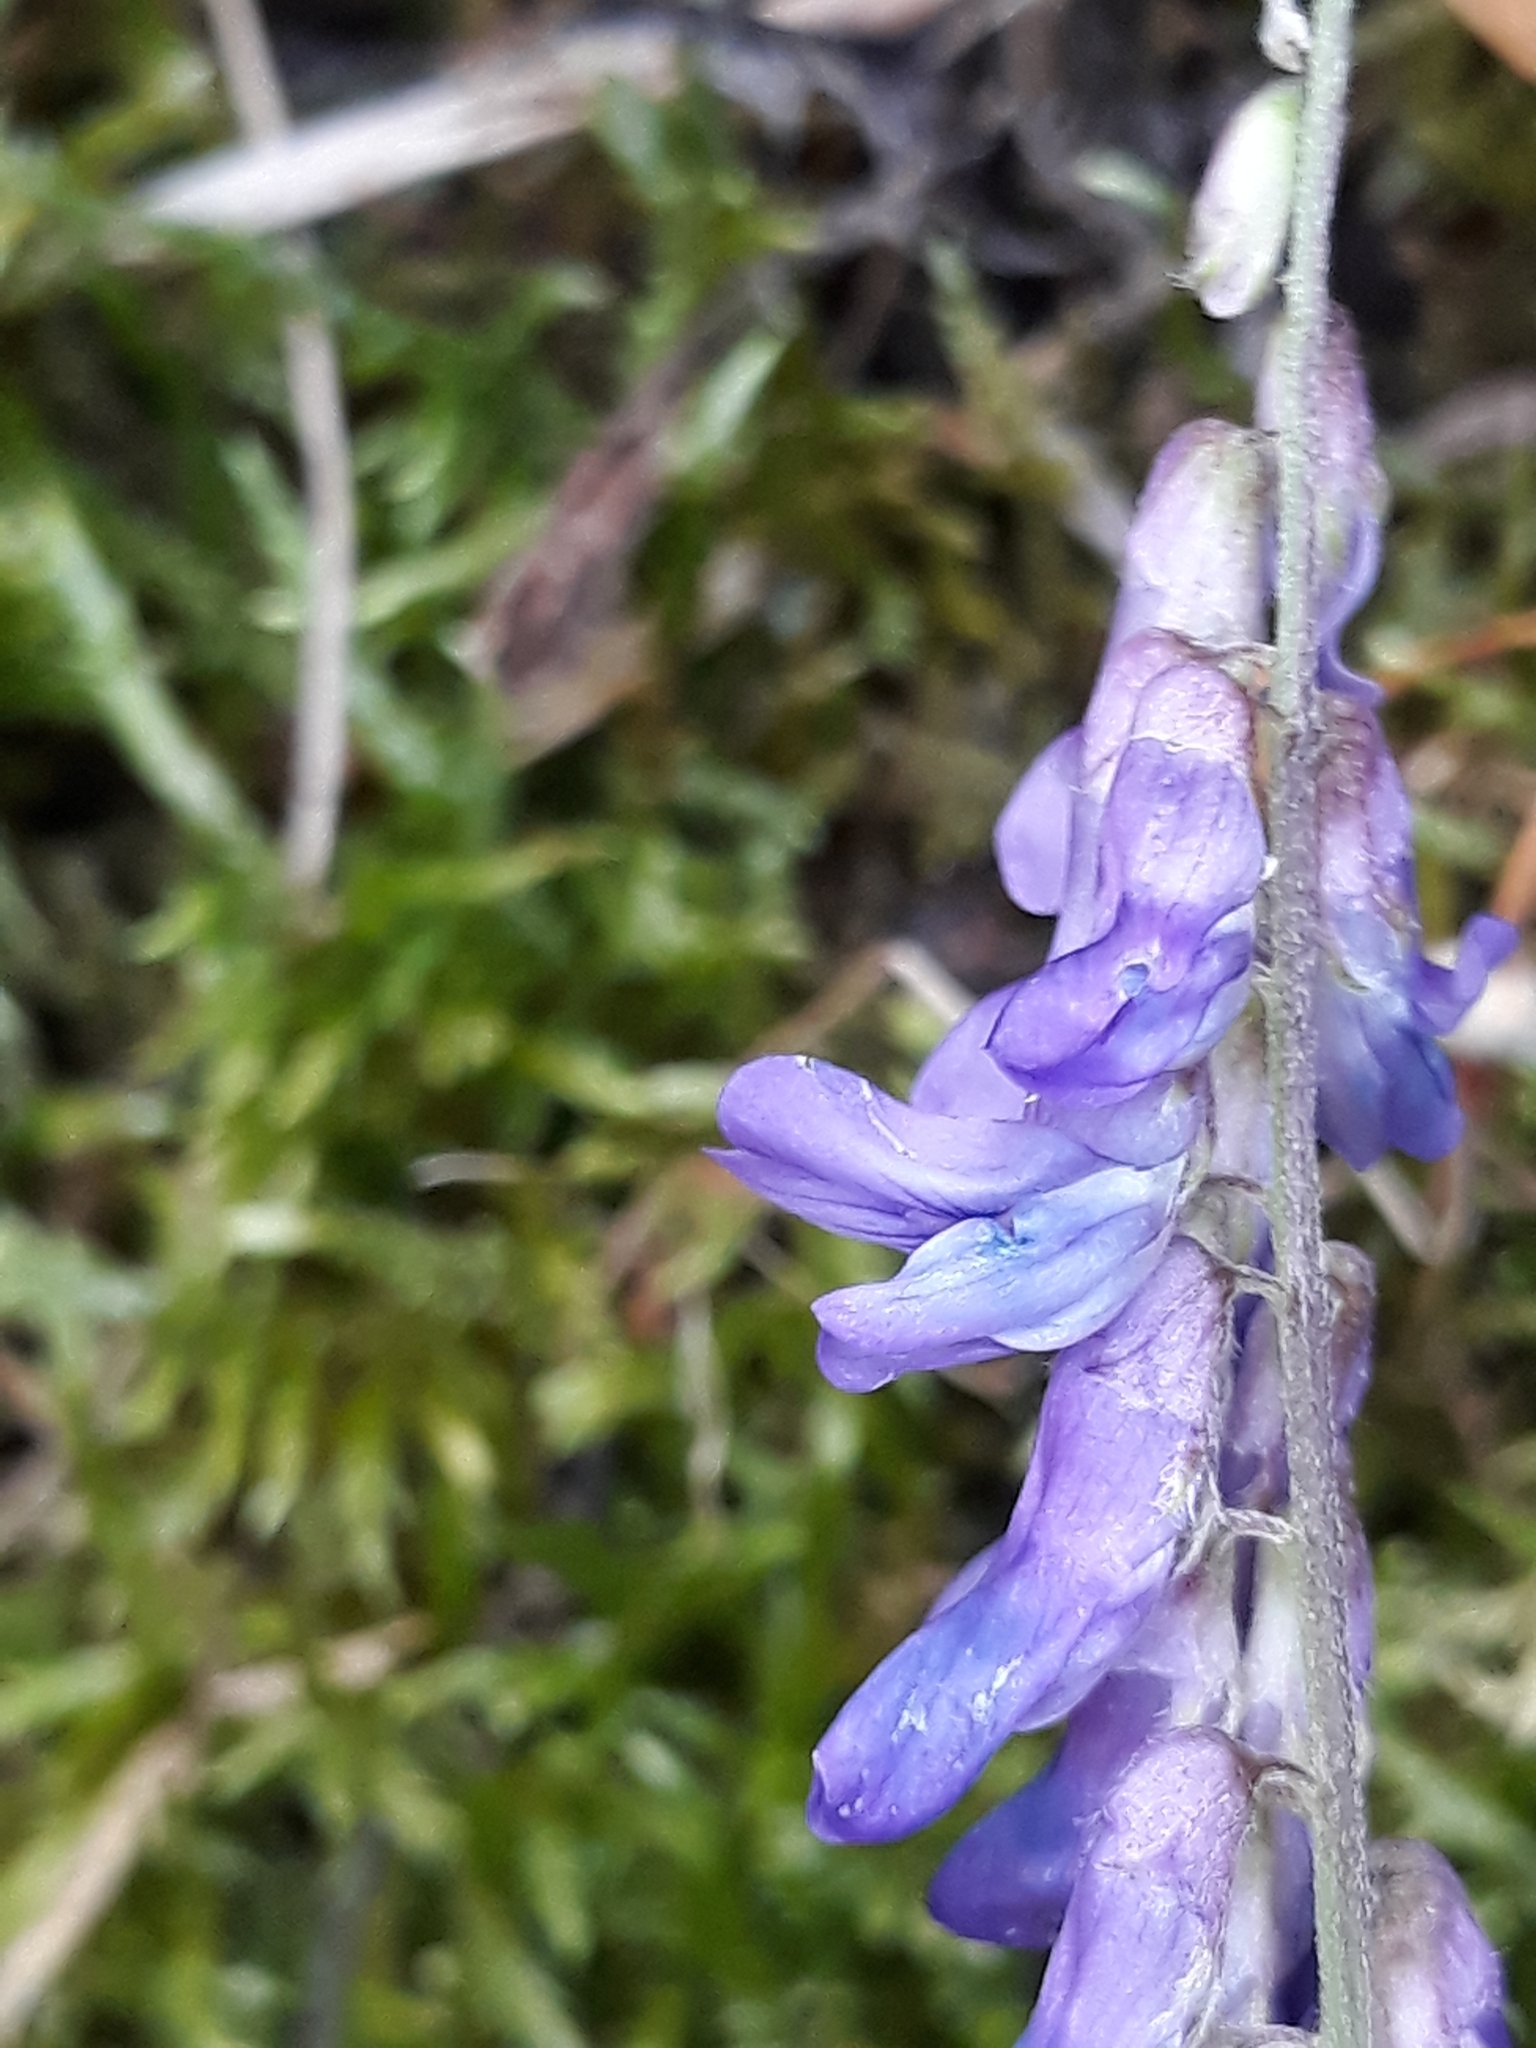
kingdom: Plantae
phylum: Tracheophyta
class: Magnoliopsida
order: Fabales
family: Fabaceae
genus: Vicia
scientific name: Vicia cracca
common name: Bird vetch
